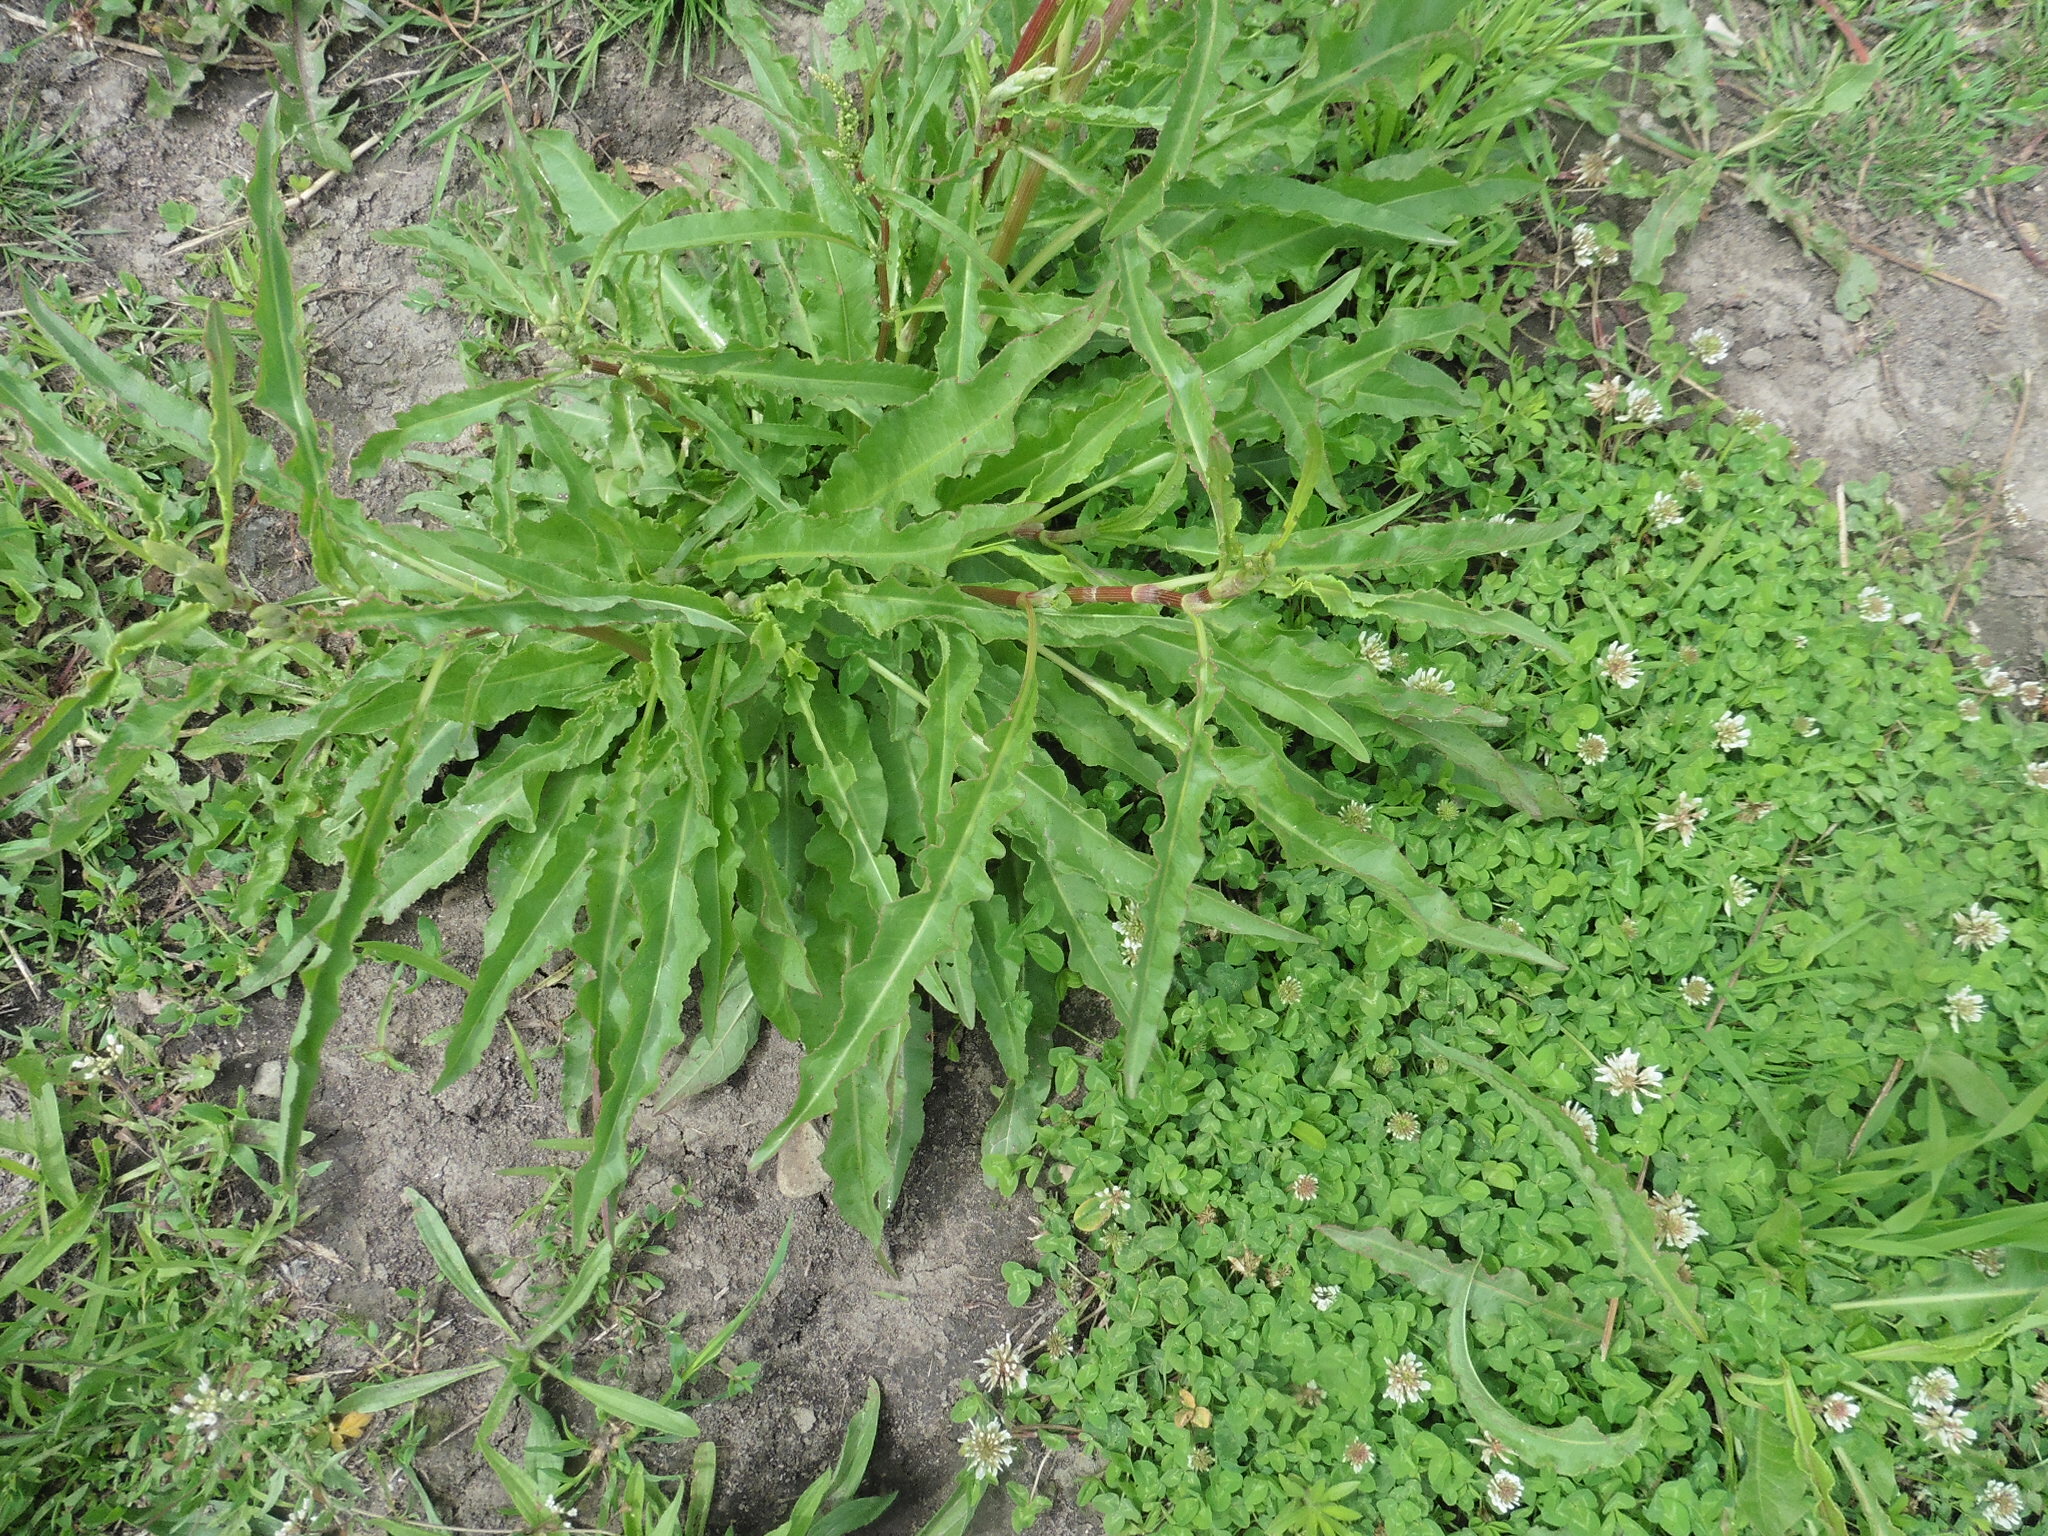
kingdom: Plantae
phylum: Tracheophyta
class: Magnoliopsida
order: Caryophyllales
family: Polygonaceae
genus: Rumex
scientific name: Rumex crispus
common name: Curled dock
